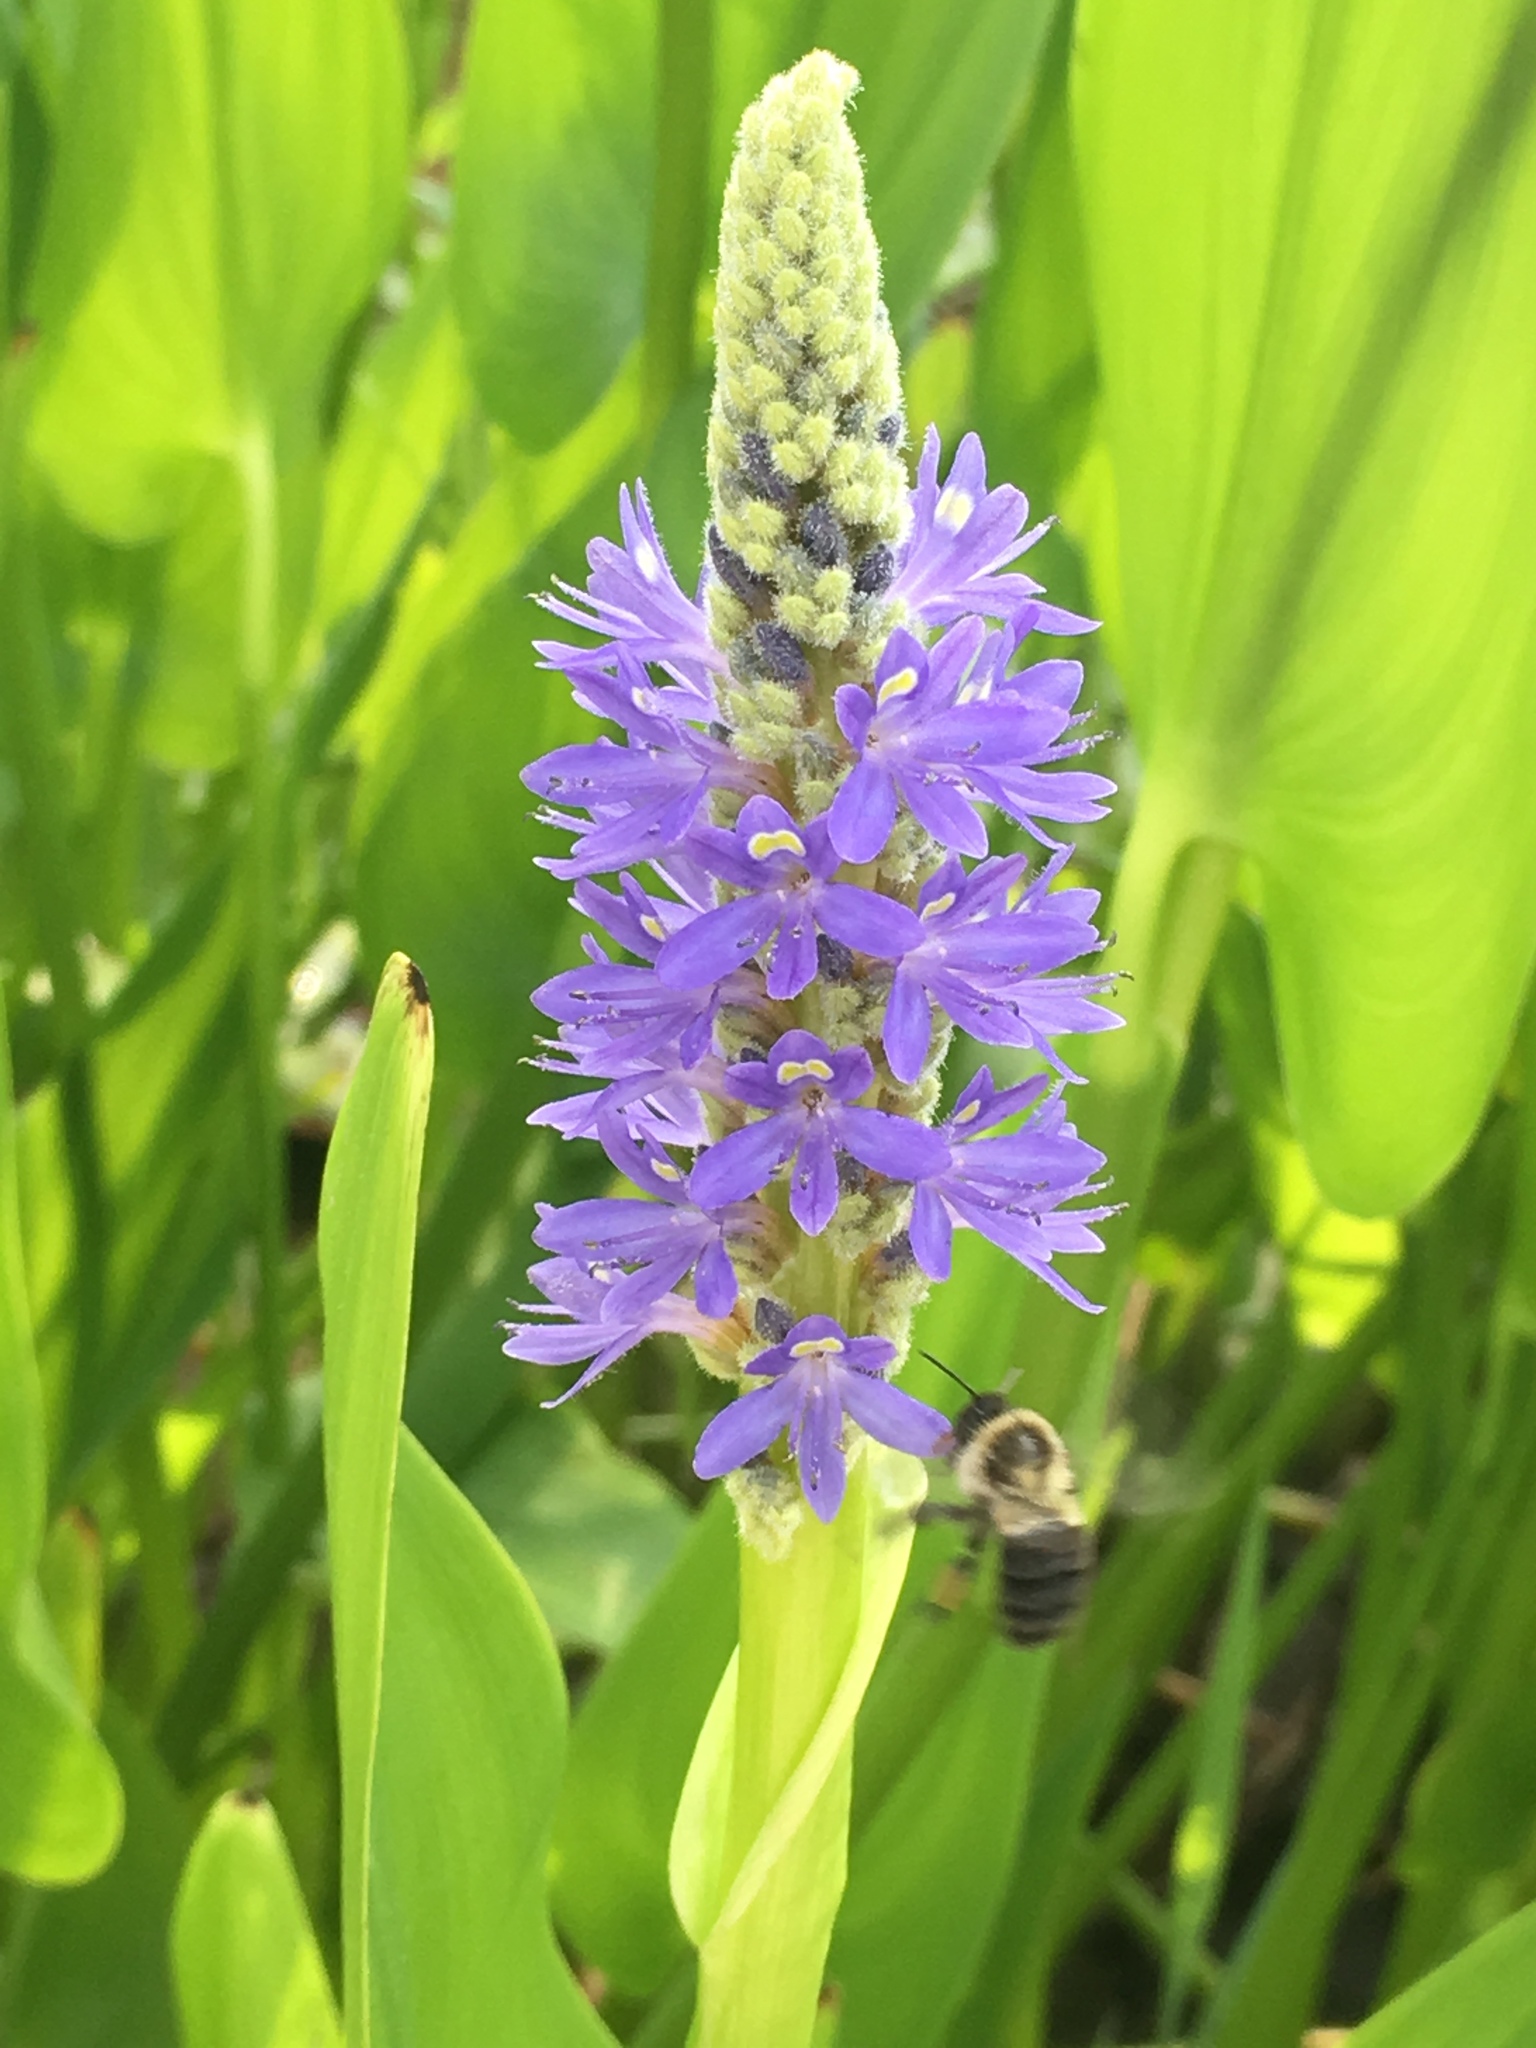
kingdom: Animalia
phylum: Arthropoda
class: Insecta
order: Hymenoptera
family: Apidae
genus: Bombus
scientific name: Bombus impatiens
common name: Common eastern bumble bee
